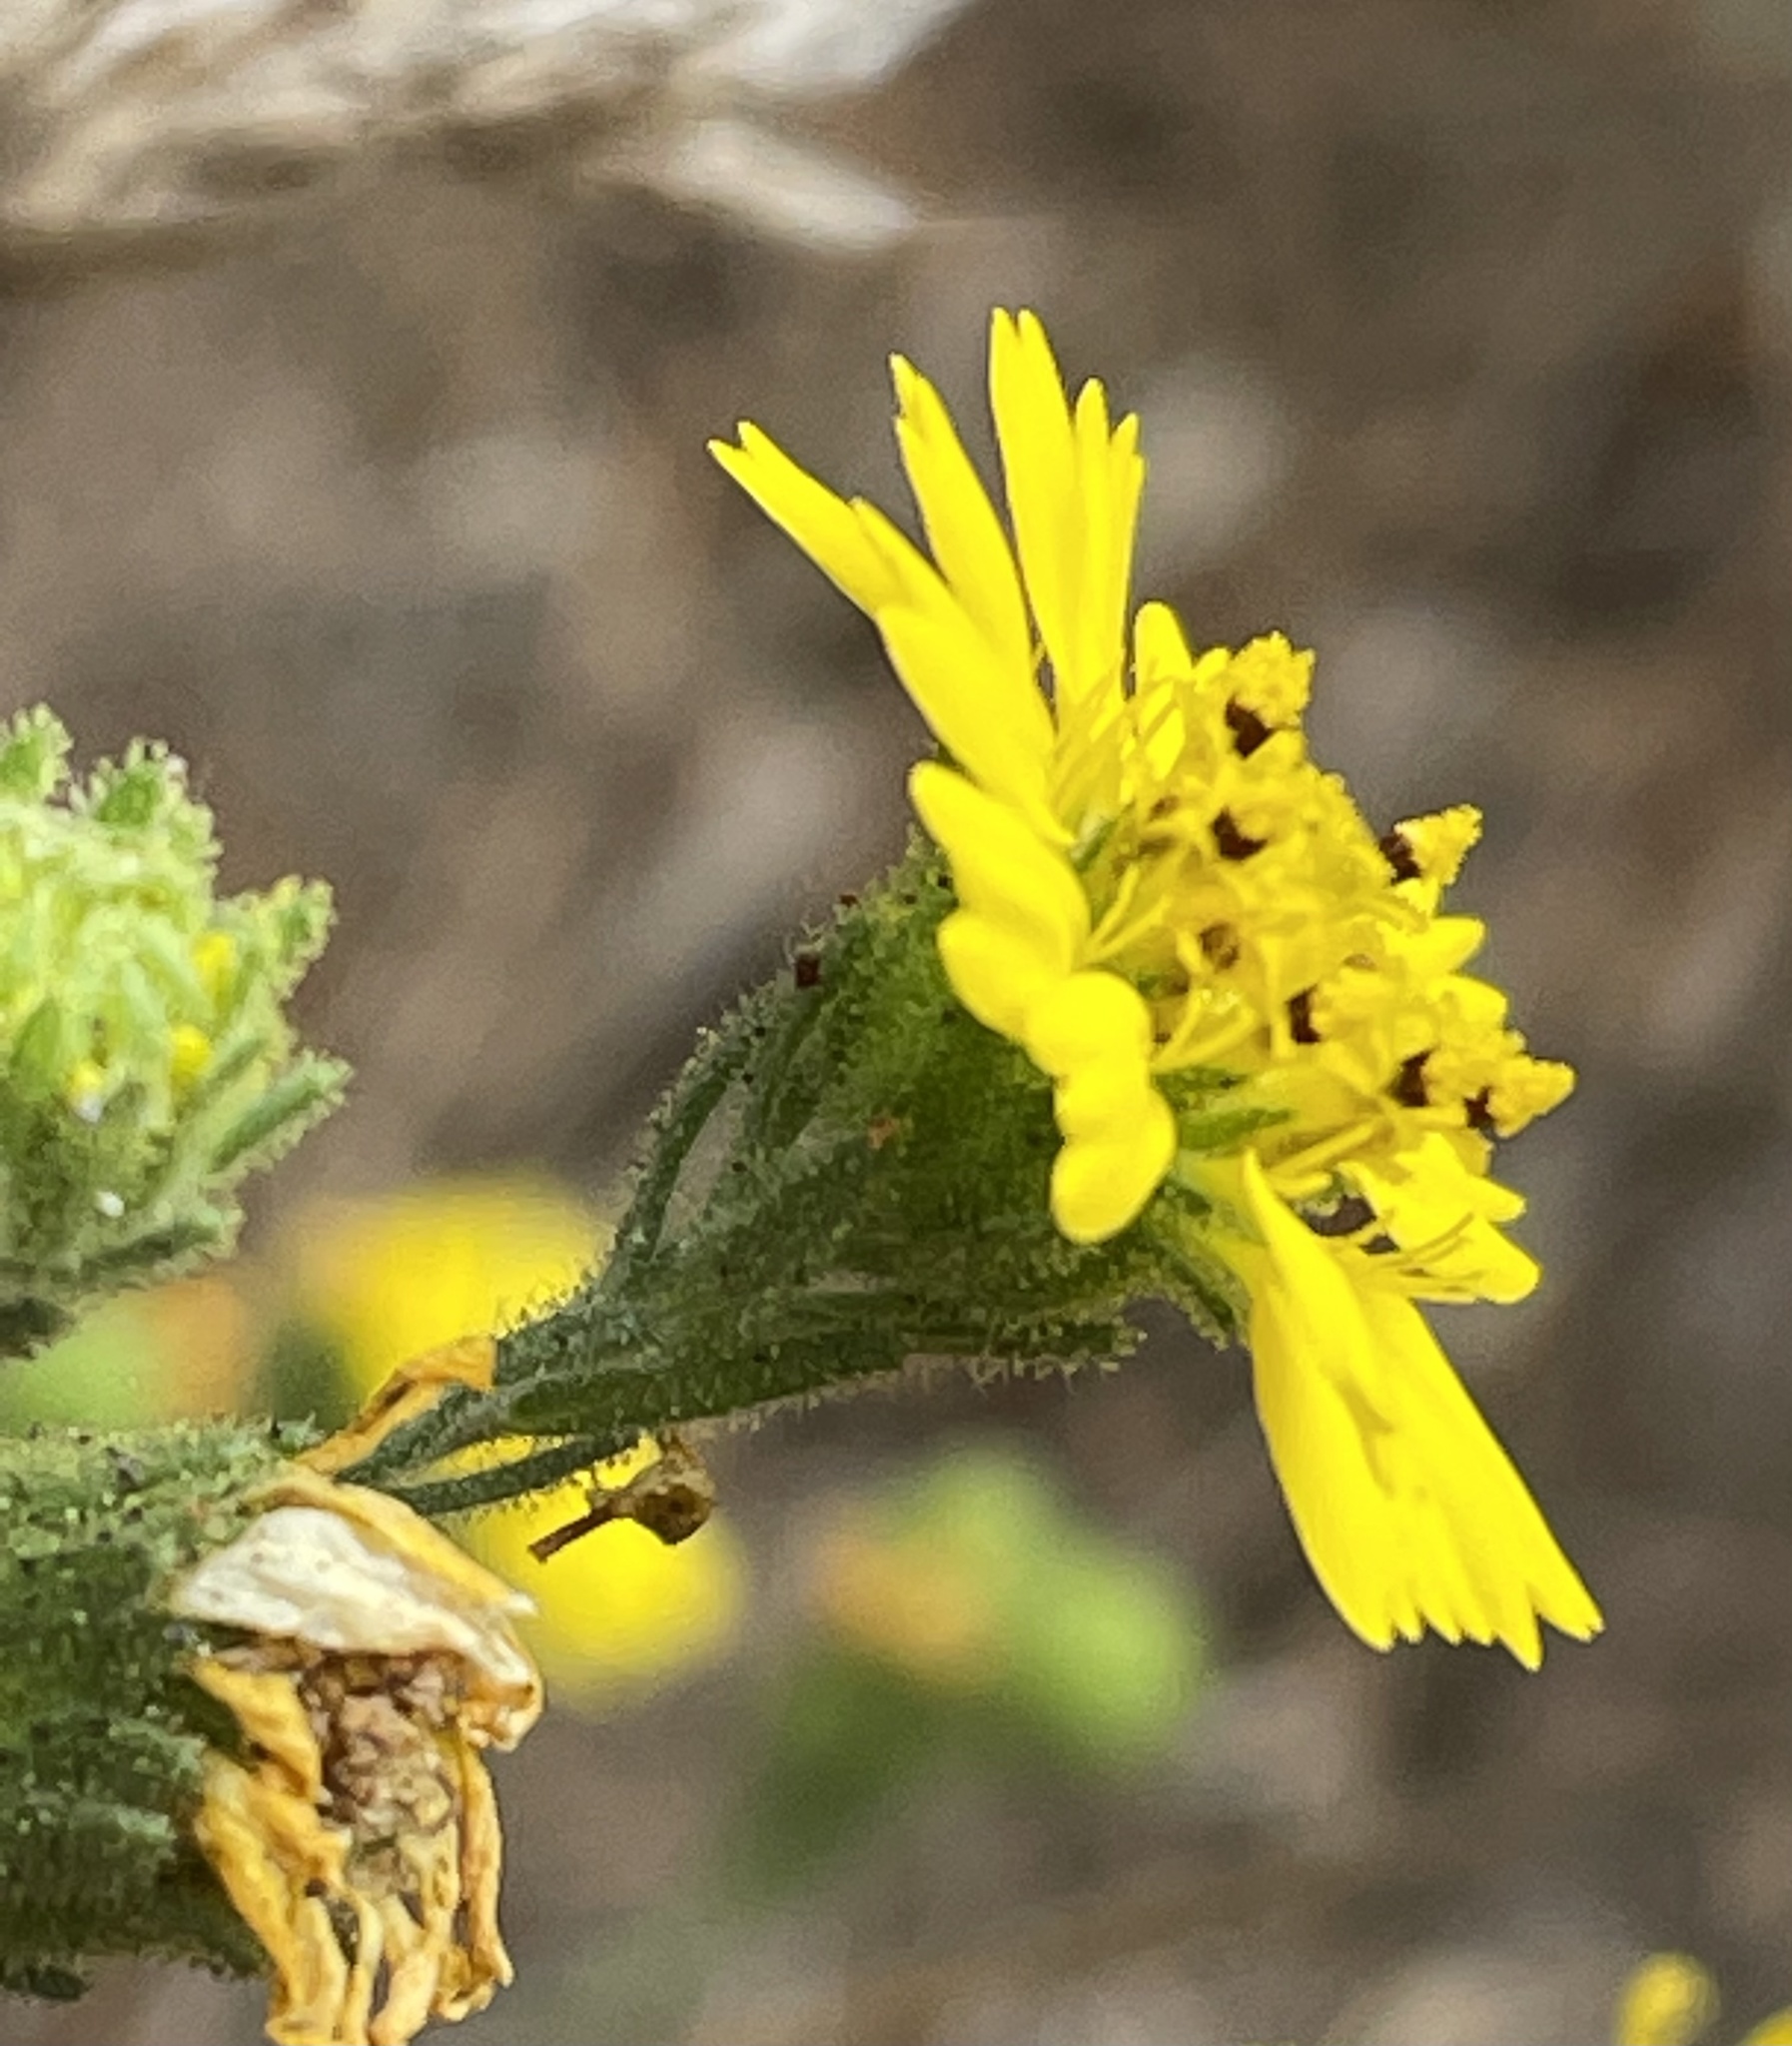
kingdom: Plantae
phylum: Tracheophyta
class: Magnoliopsida
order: Asterales
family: Asteraceae
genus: Deinandra
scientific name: Deinandra corymbosa
